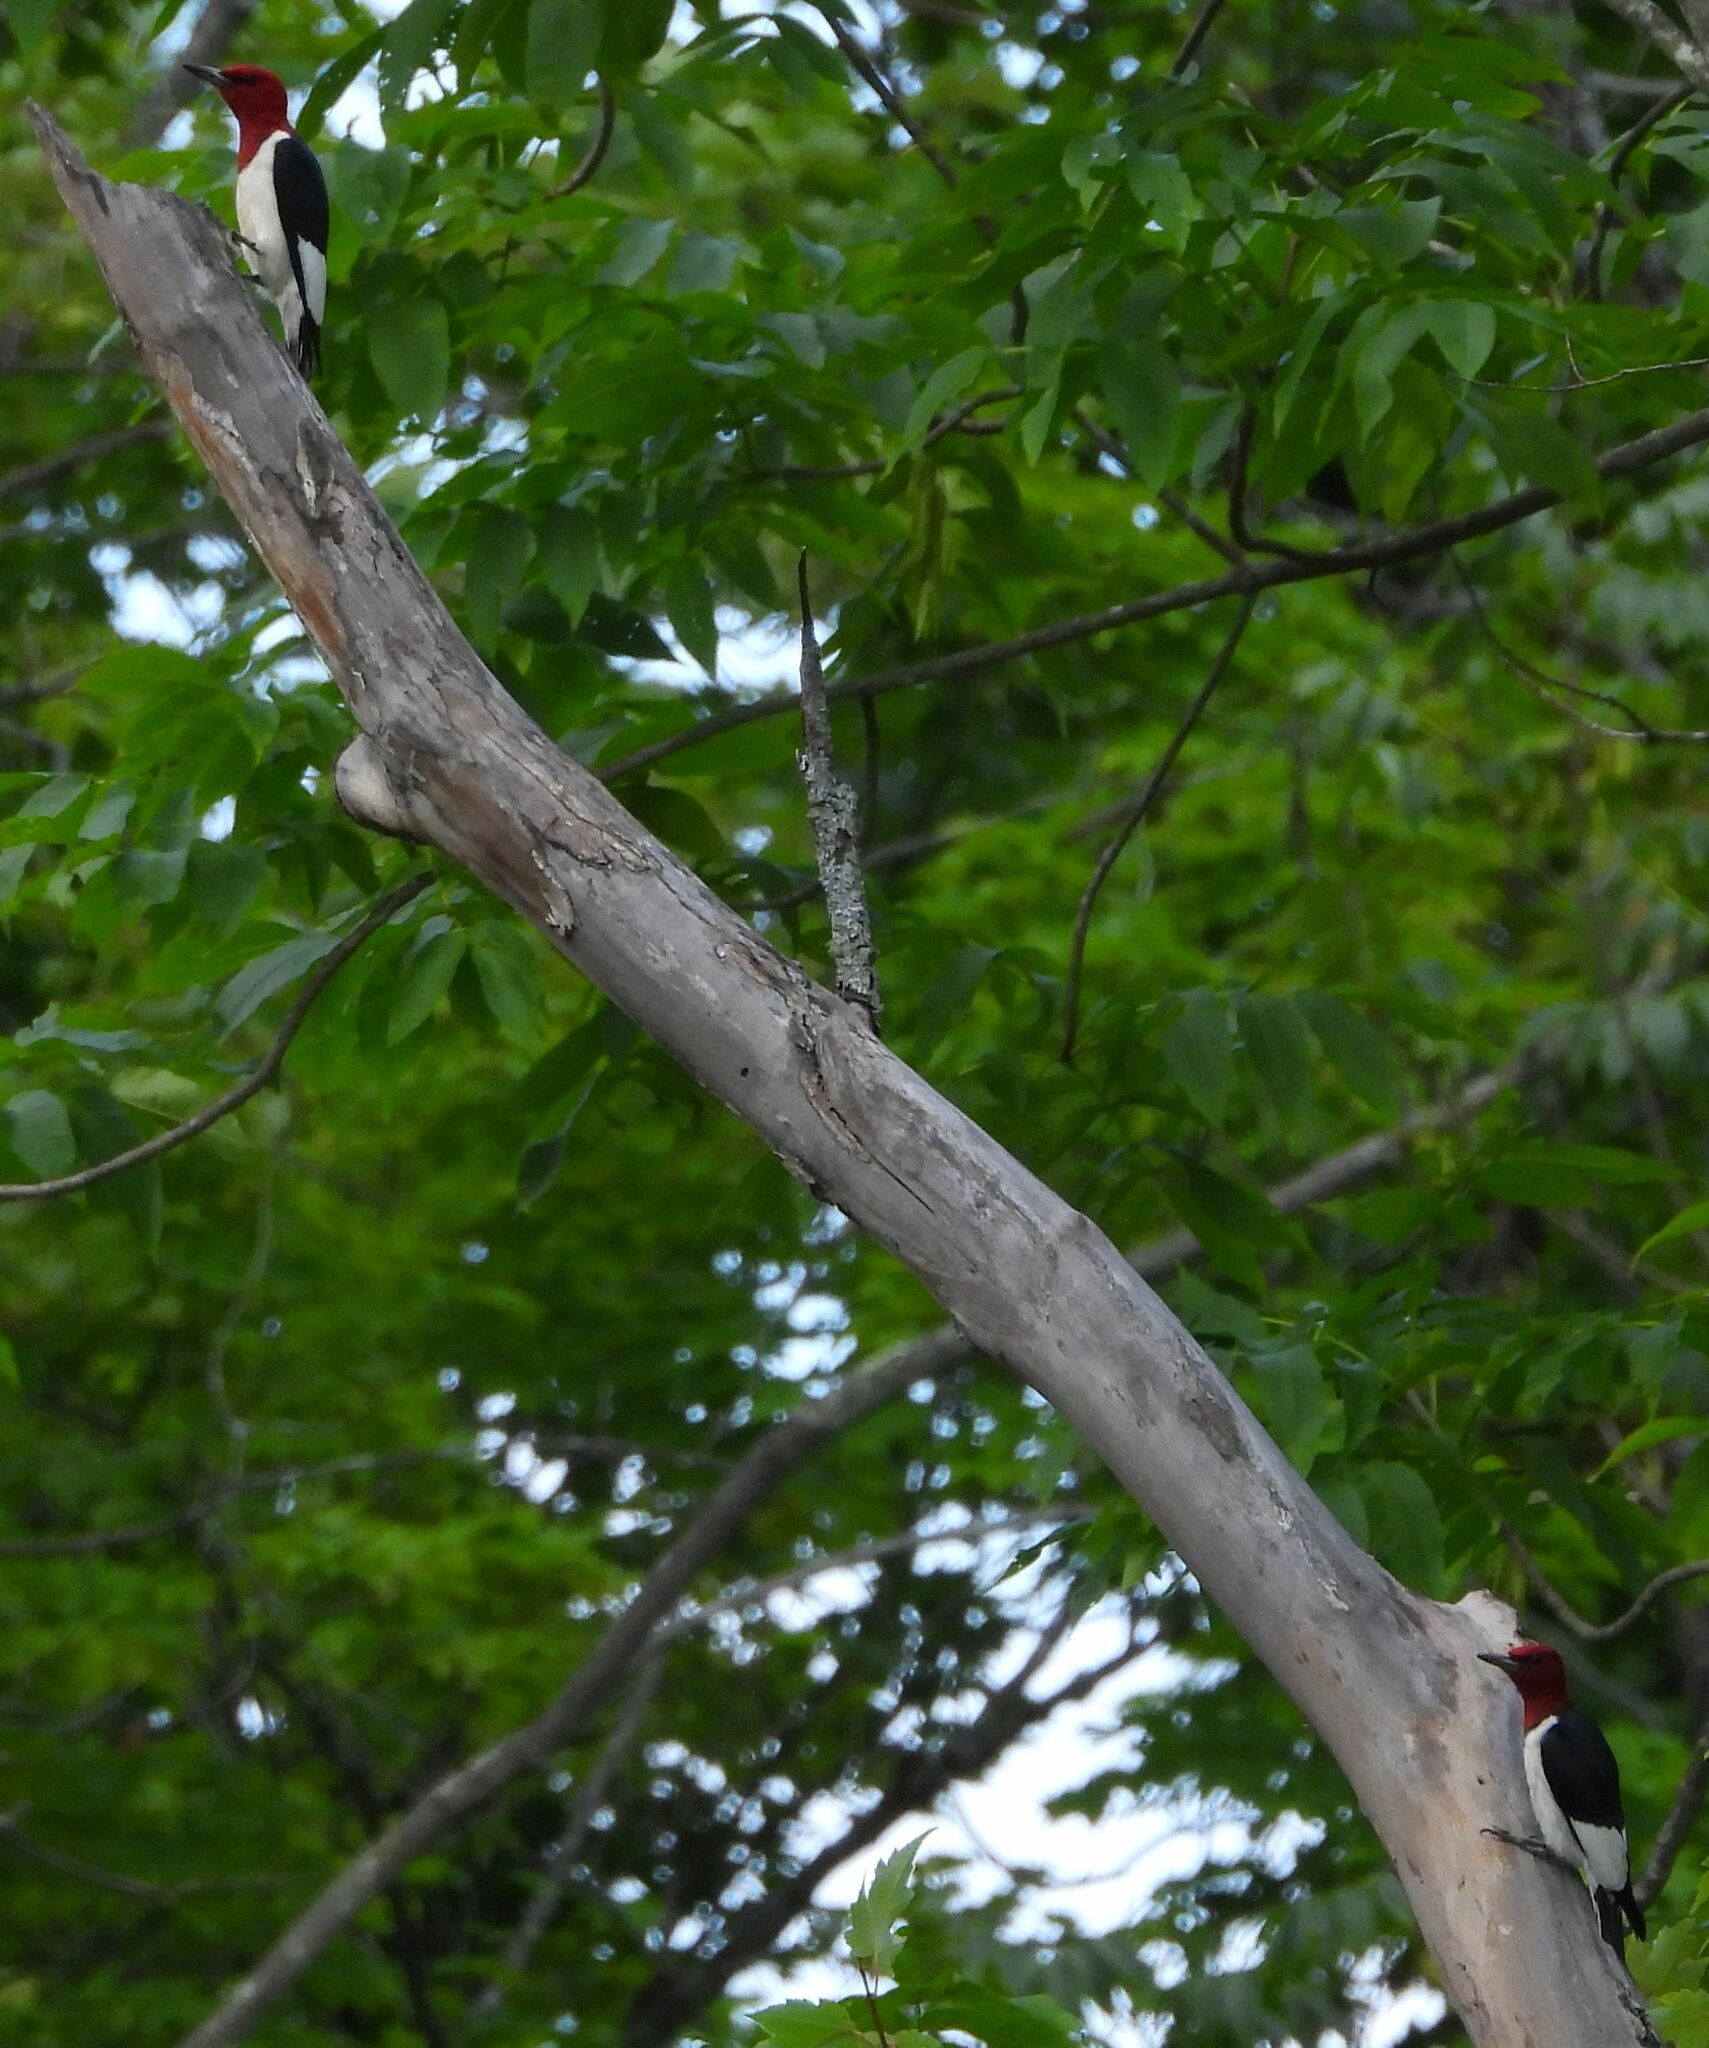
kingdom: Animalia
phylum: Chordata
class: Aves
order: Piciformes
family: Picidae
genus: Melanerpes
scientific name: Melanerpes erythrocephalus
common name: Red-headed woodpecker
